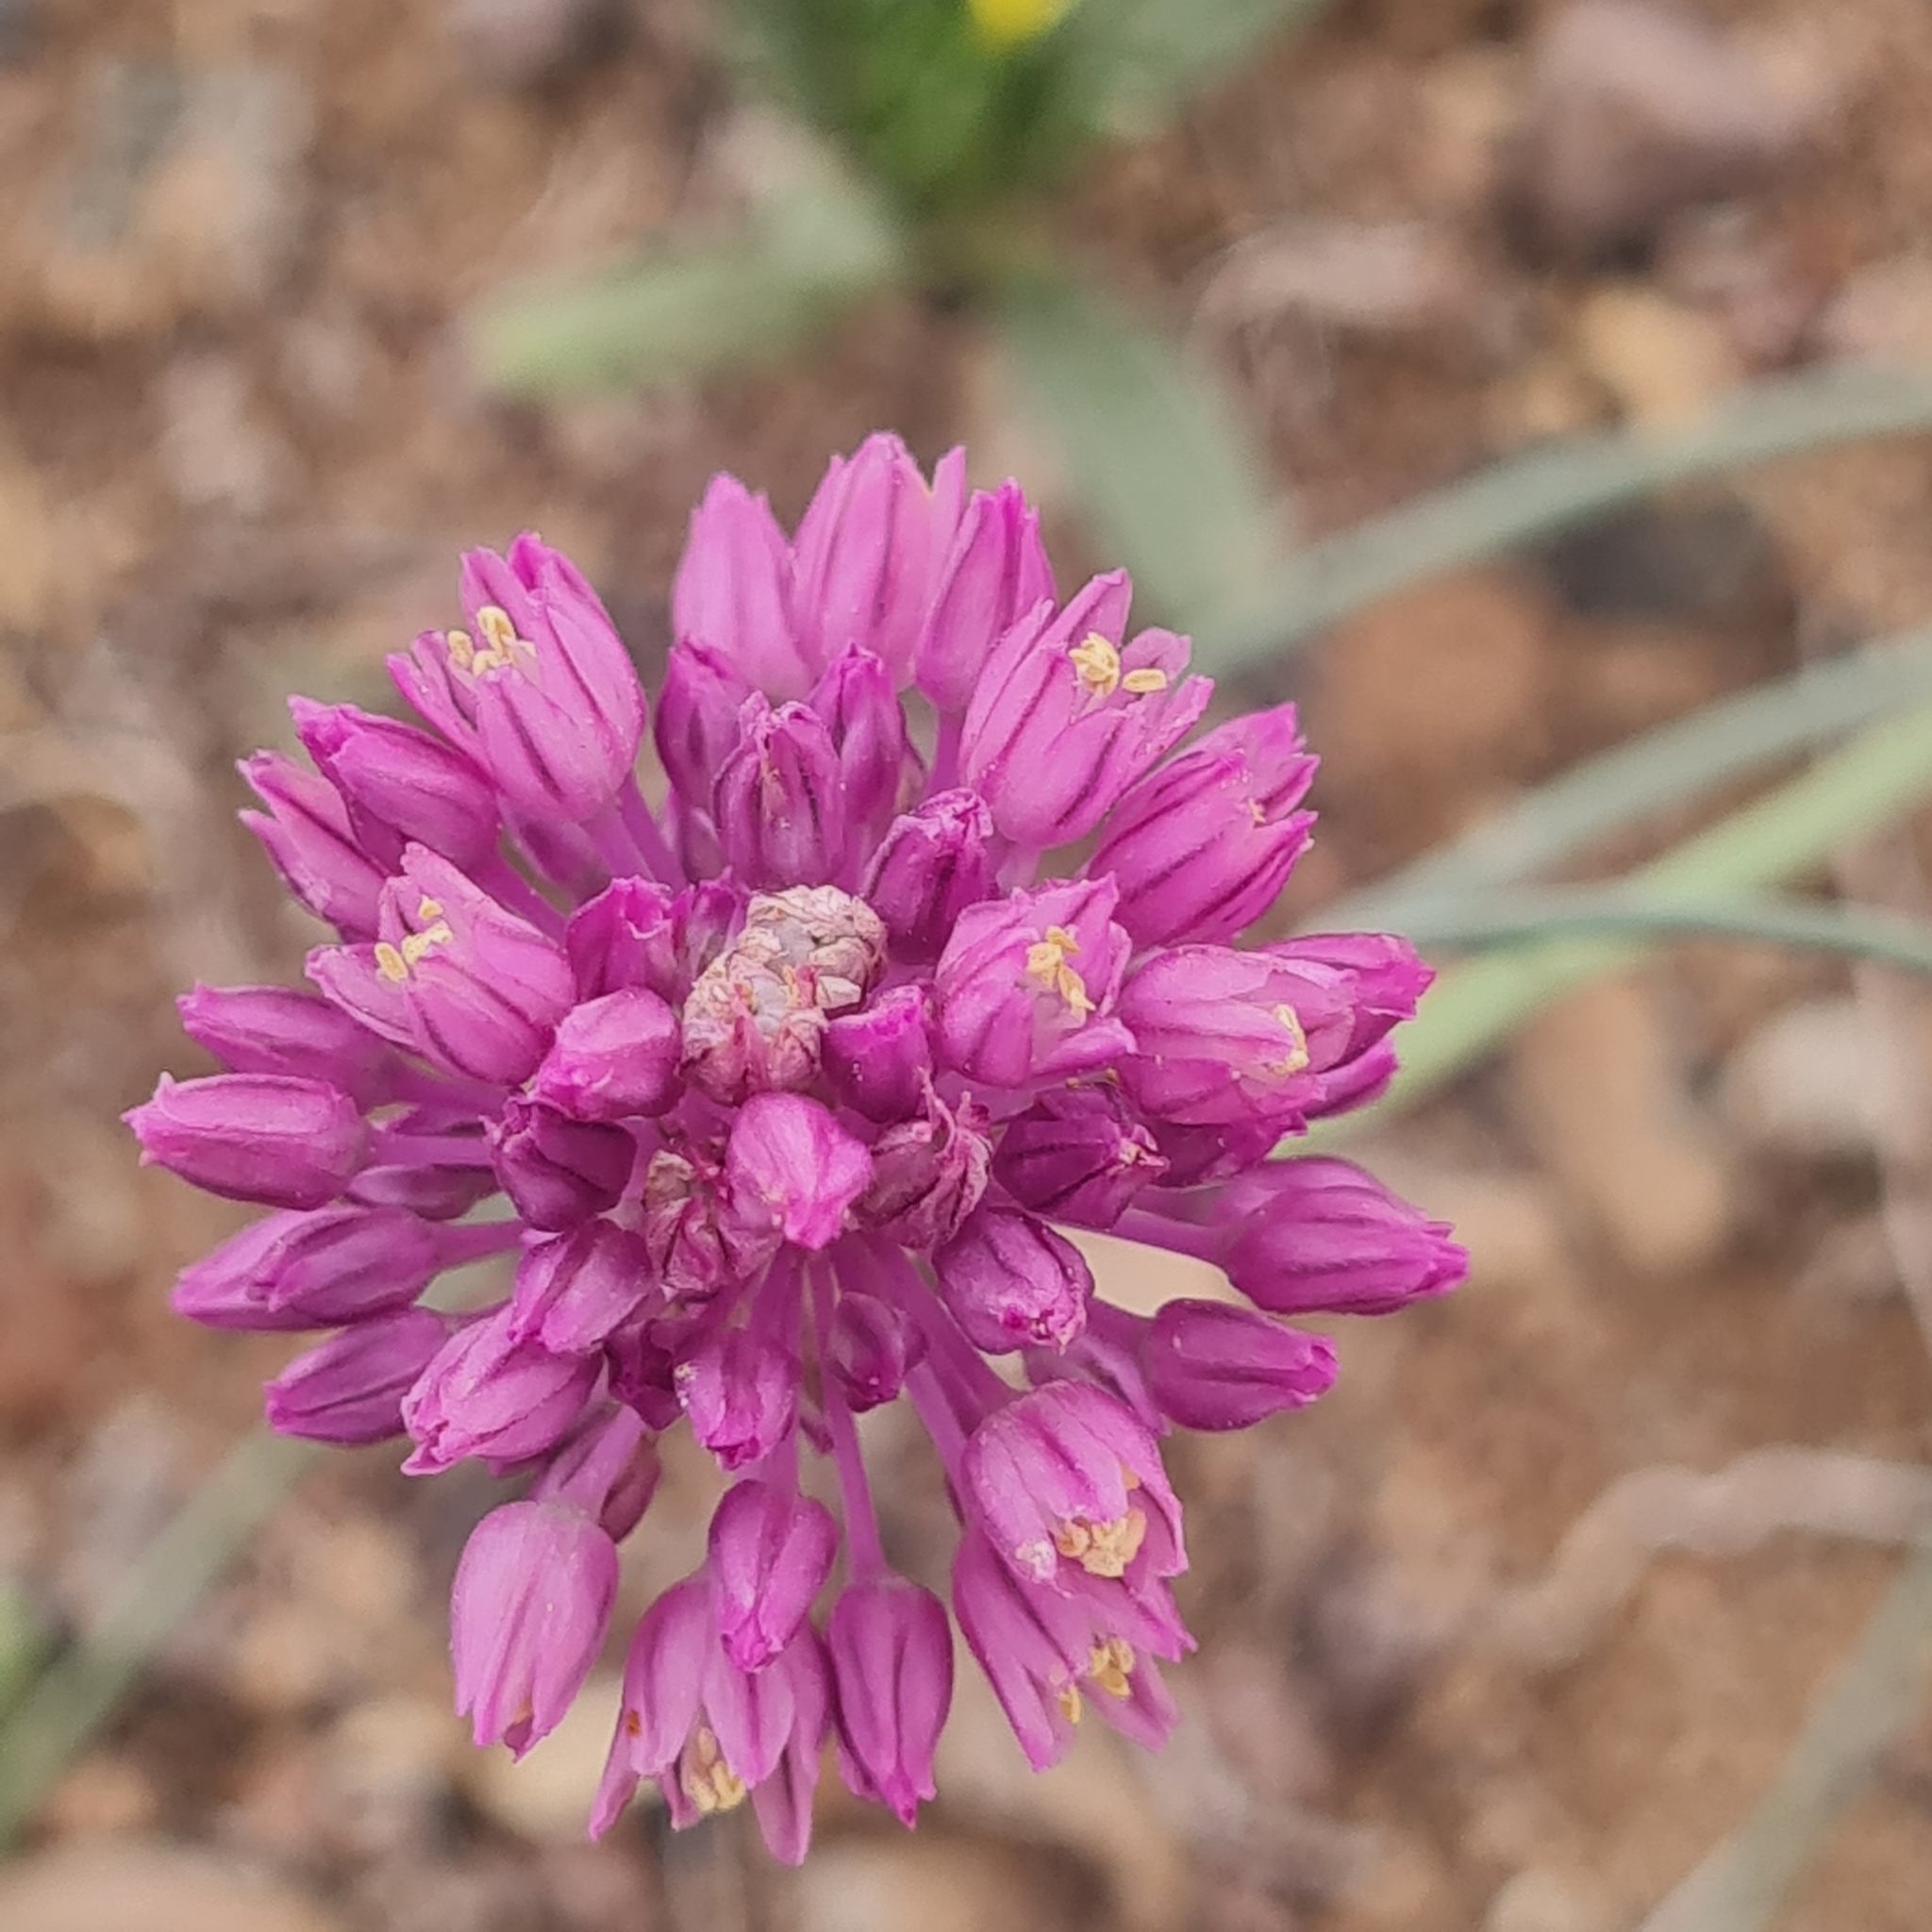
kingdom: Plantae
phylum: Tracheophyta
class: Liliopsida
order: Asparagales
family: Amaryllidaceae
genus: Allium
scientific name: Allium rubellum
